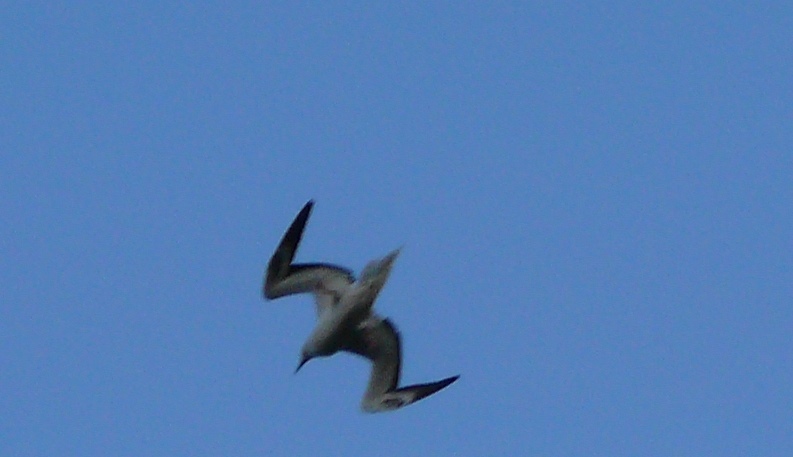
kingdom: Animalia
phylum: Chordata
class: Aves
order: Suliformes
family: Sulidae
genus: Sula
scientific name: Sula sula
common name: Red-footed booby
